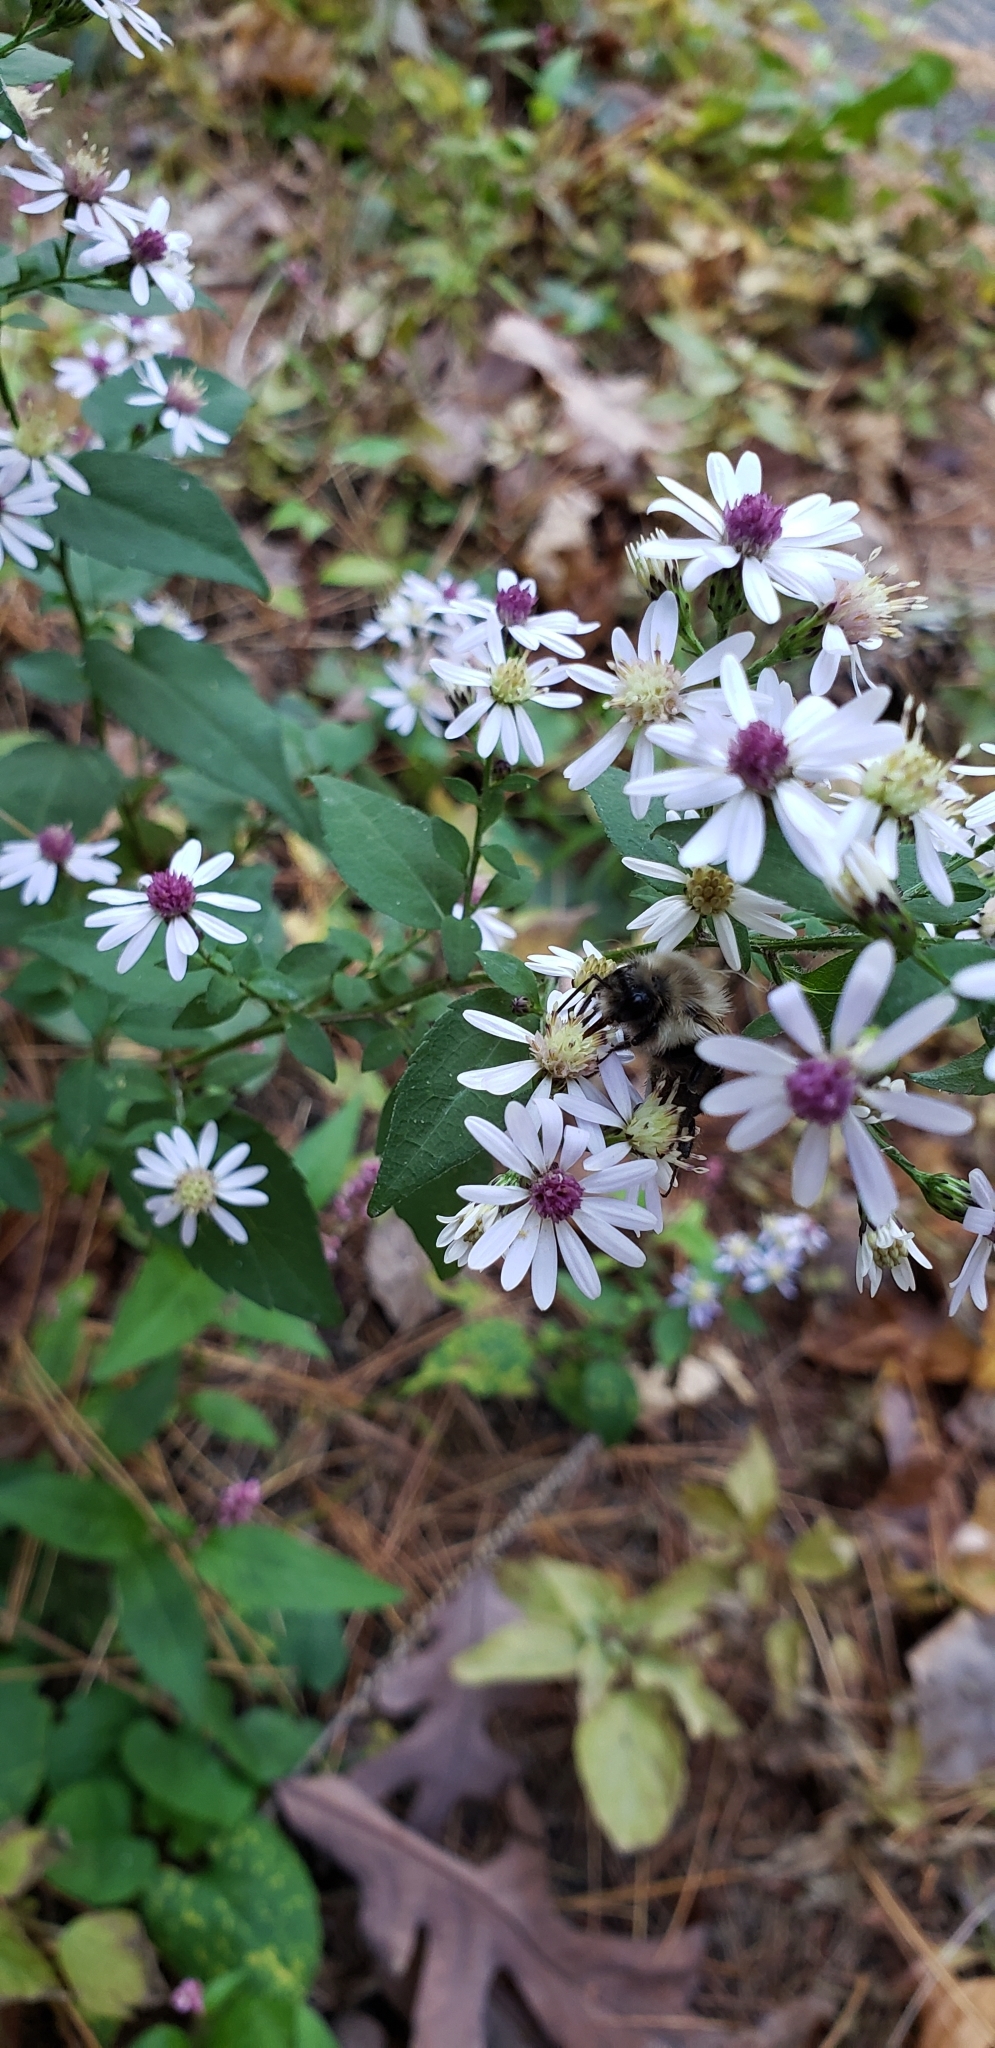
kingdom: Plantae
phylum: Tracheophyta
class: Magnoliopsida
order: Asterales
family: Asteraceae
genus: Symphyotrichum
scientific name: Symphyotrichum lateriflorum
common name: Calico aster
